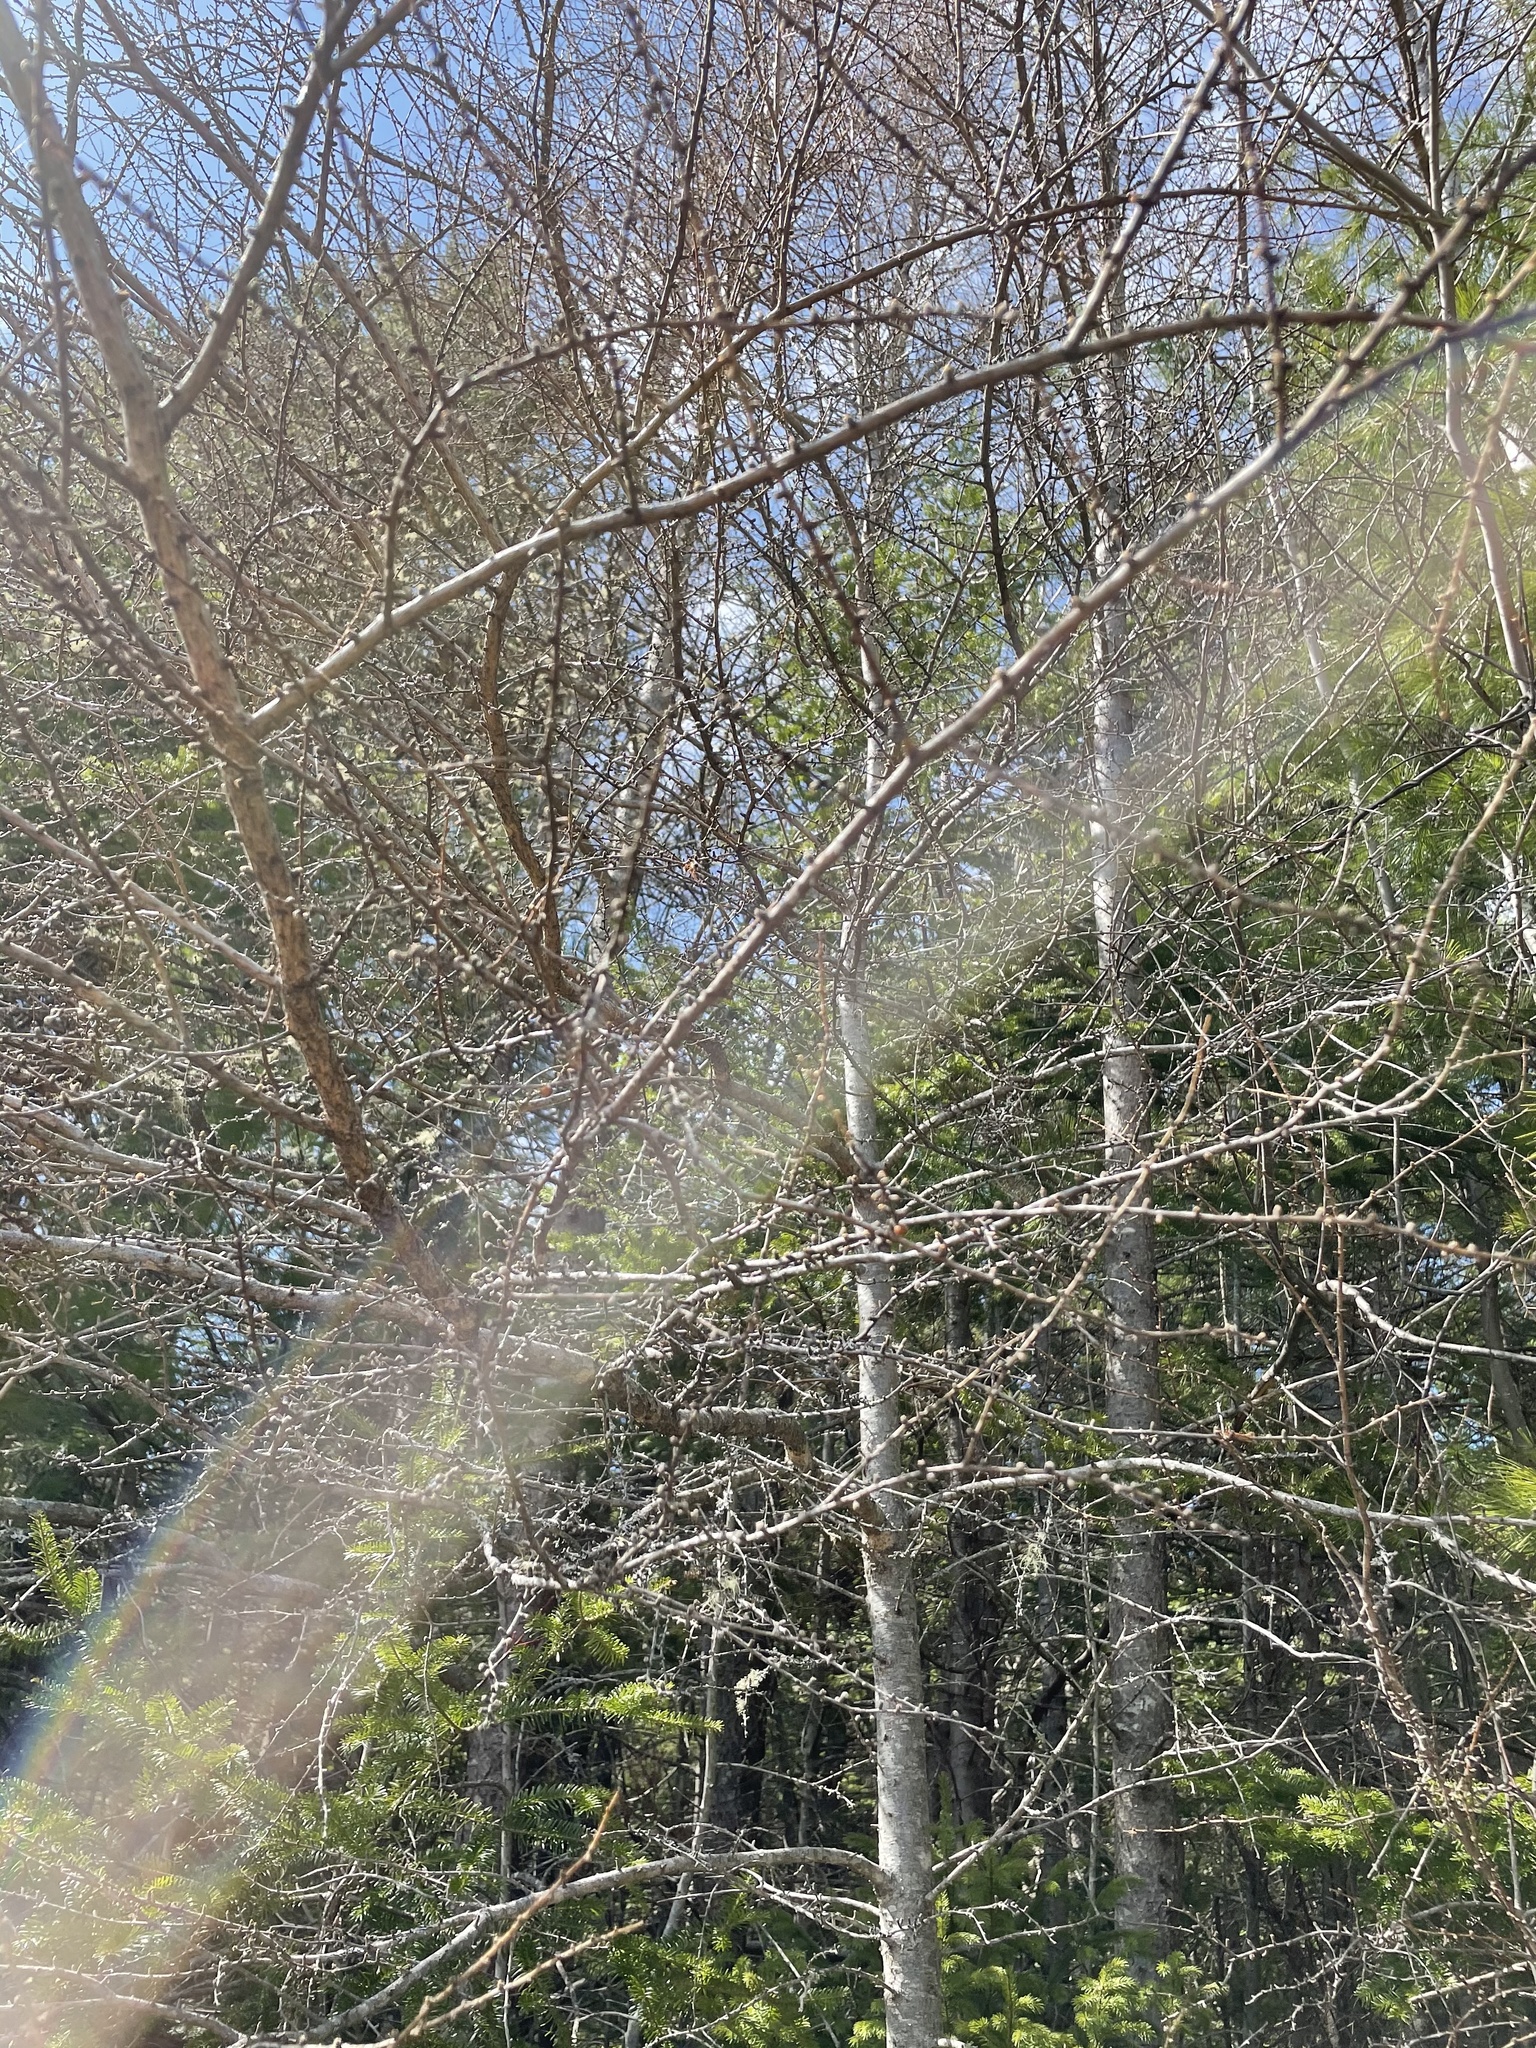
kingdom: Plantae
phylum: Tracheophyta
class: Pinopsida
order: Pinales
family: Pinaceae
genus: Larix
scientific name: Larix laricina
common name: American larch
